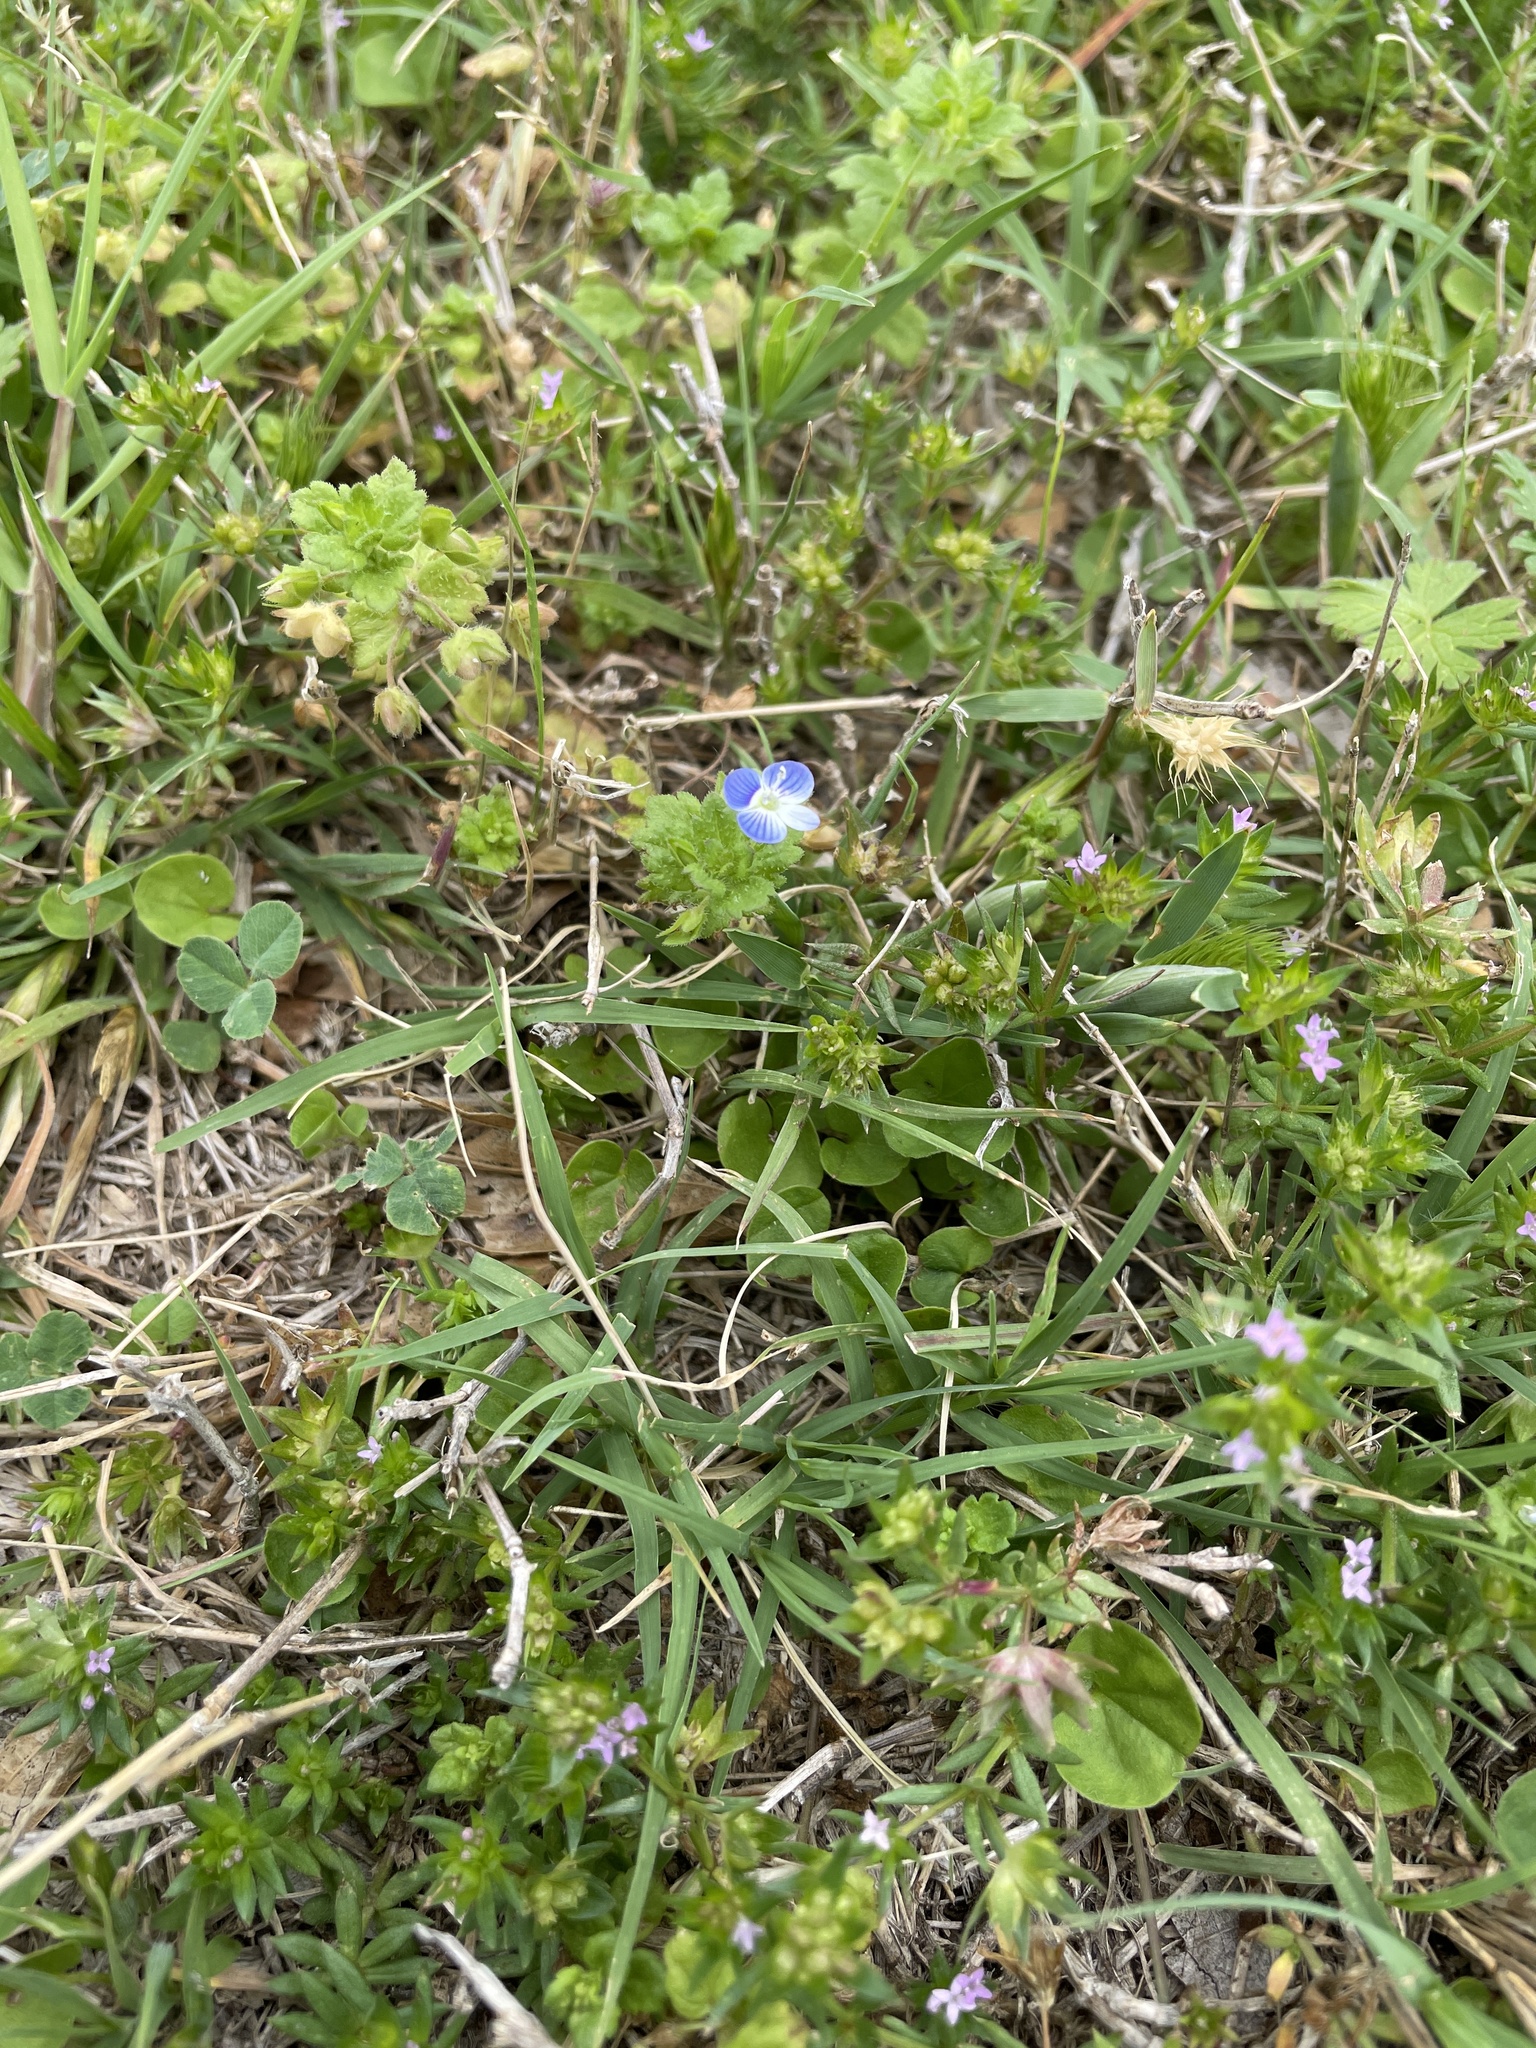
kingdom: Plantae
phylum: Tracheophyta
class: Magnoliopsida
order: Lamiales
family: Plantaginaceae
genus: Veronica
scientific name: Veronica persica
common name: Common field-speedwell
